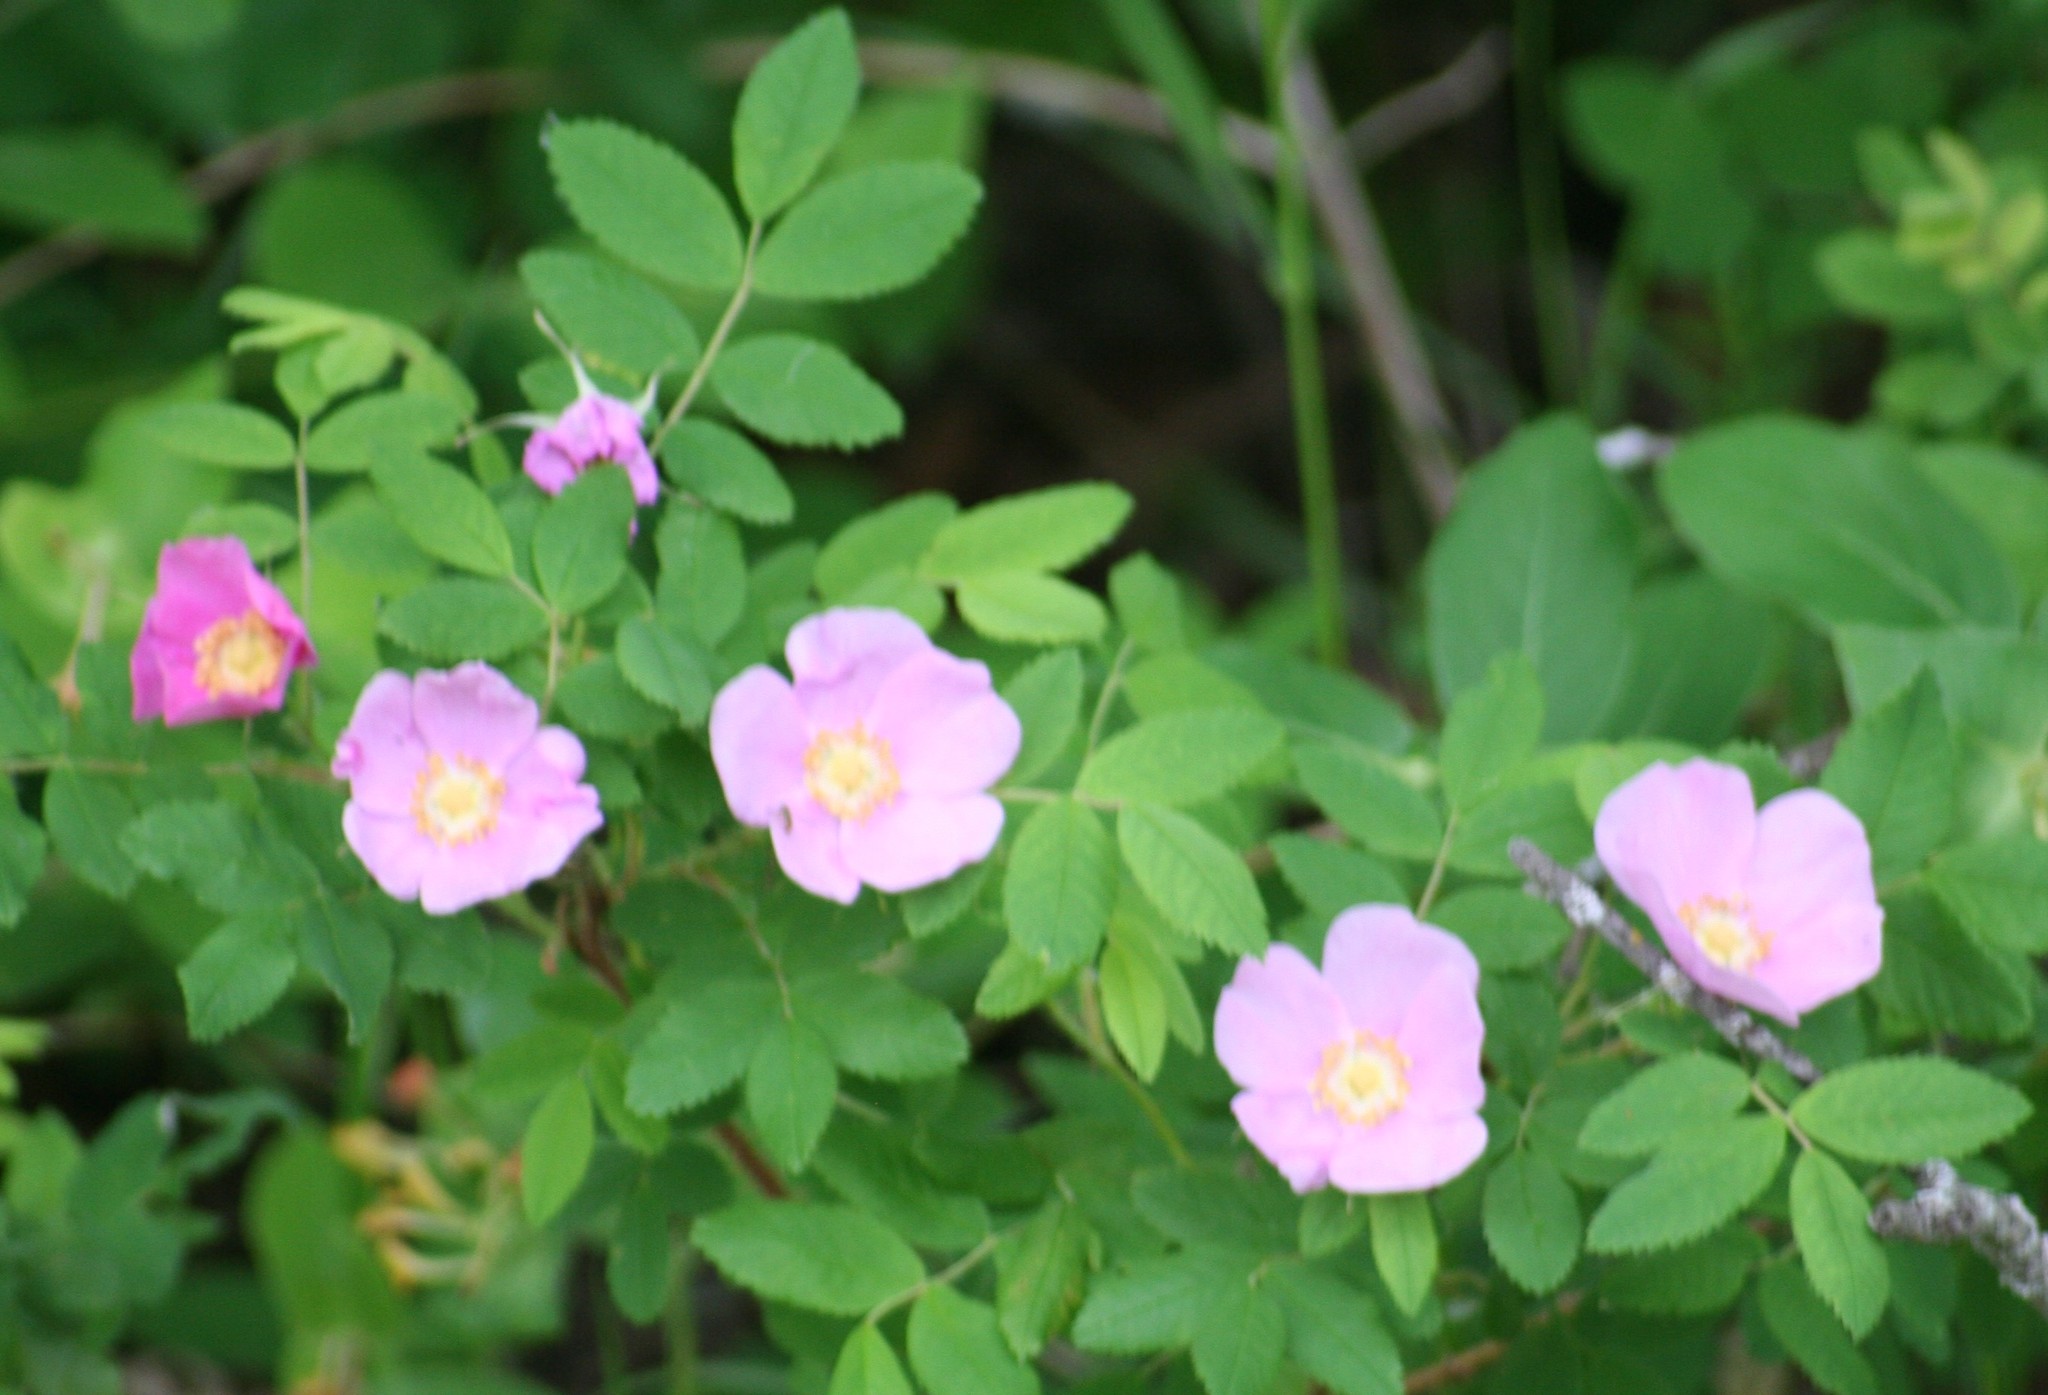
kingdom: Plantae
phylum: Tracheophyta
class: Magnoliopsida
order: Rosales
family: Rosaceae
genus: Rosa
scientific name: Rosa woodsii
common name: Woods's rose
